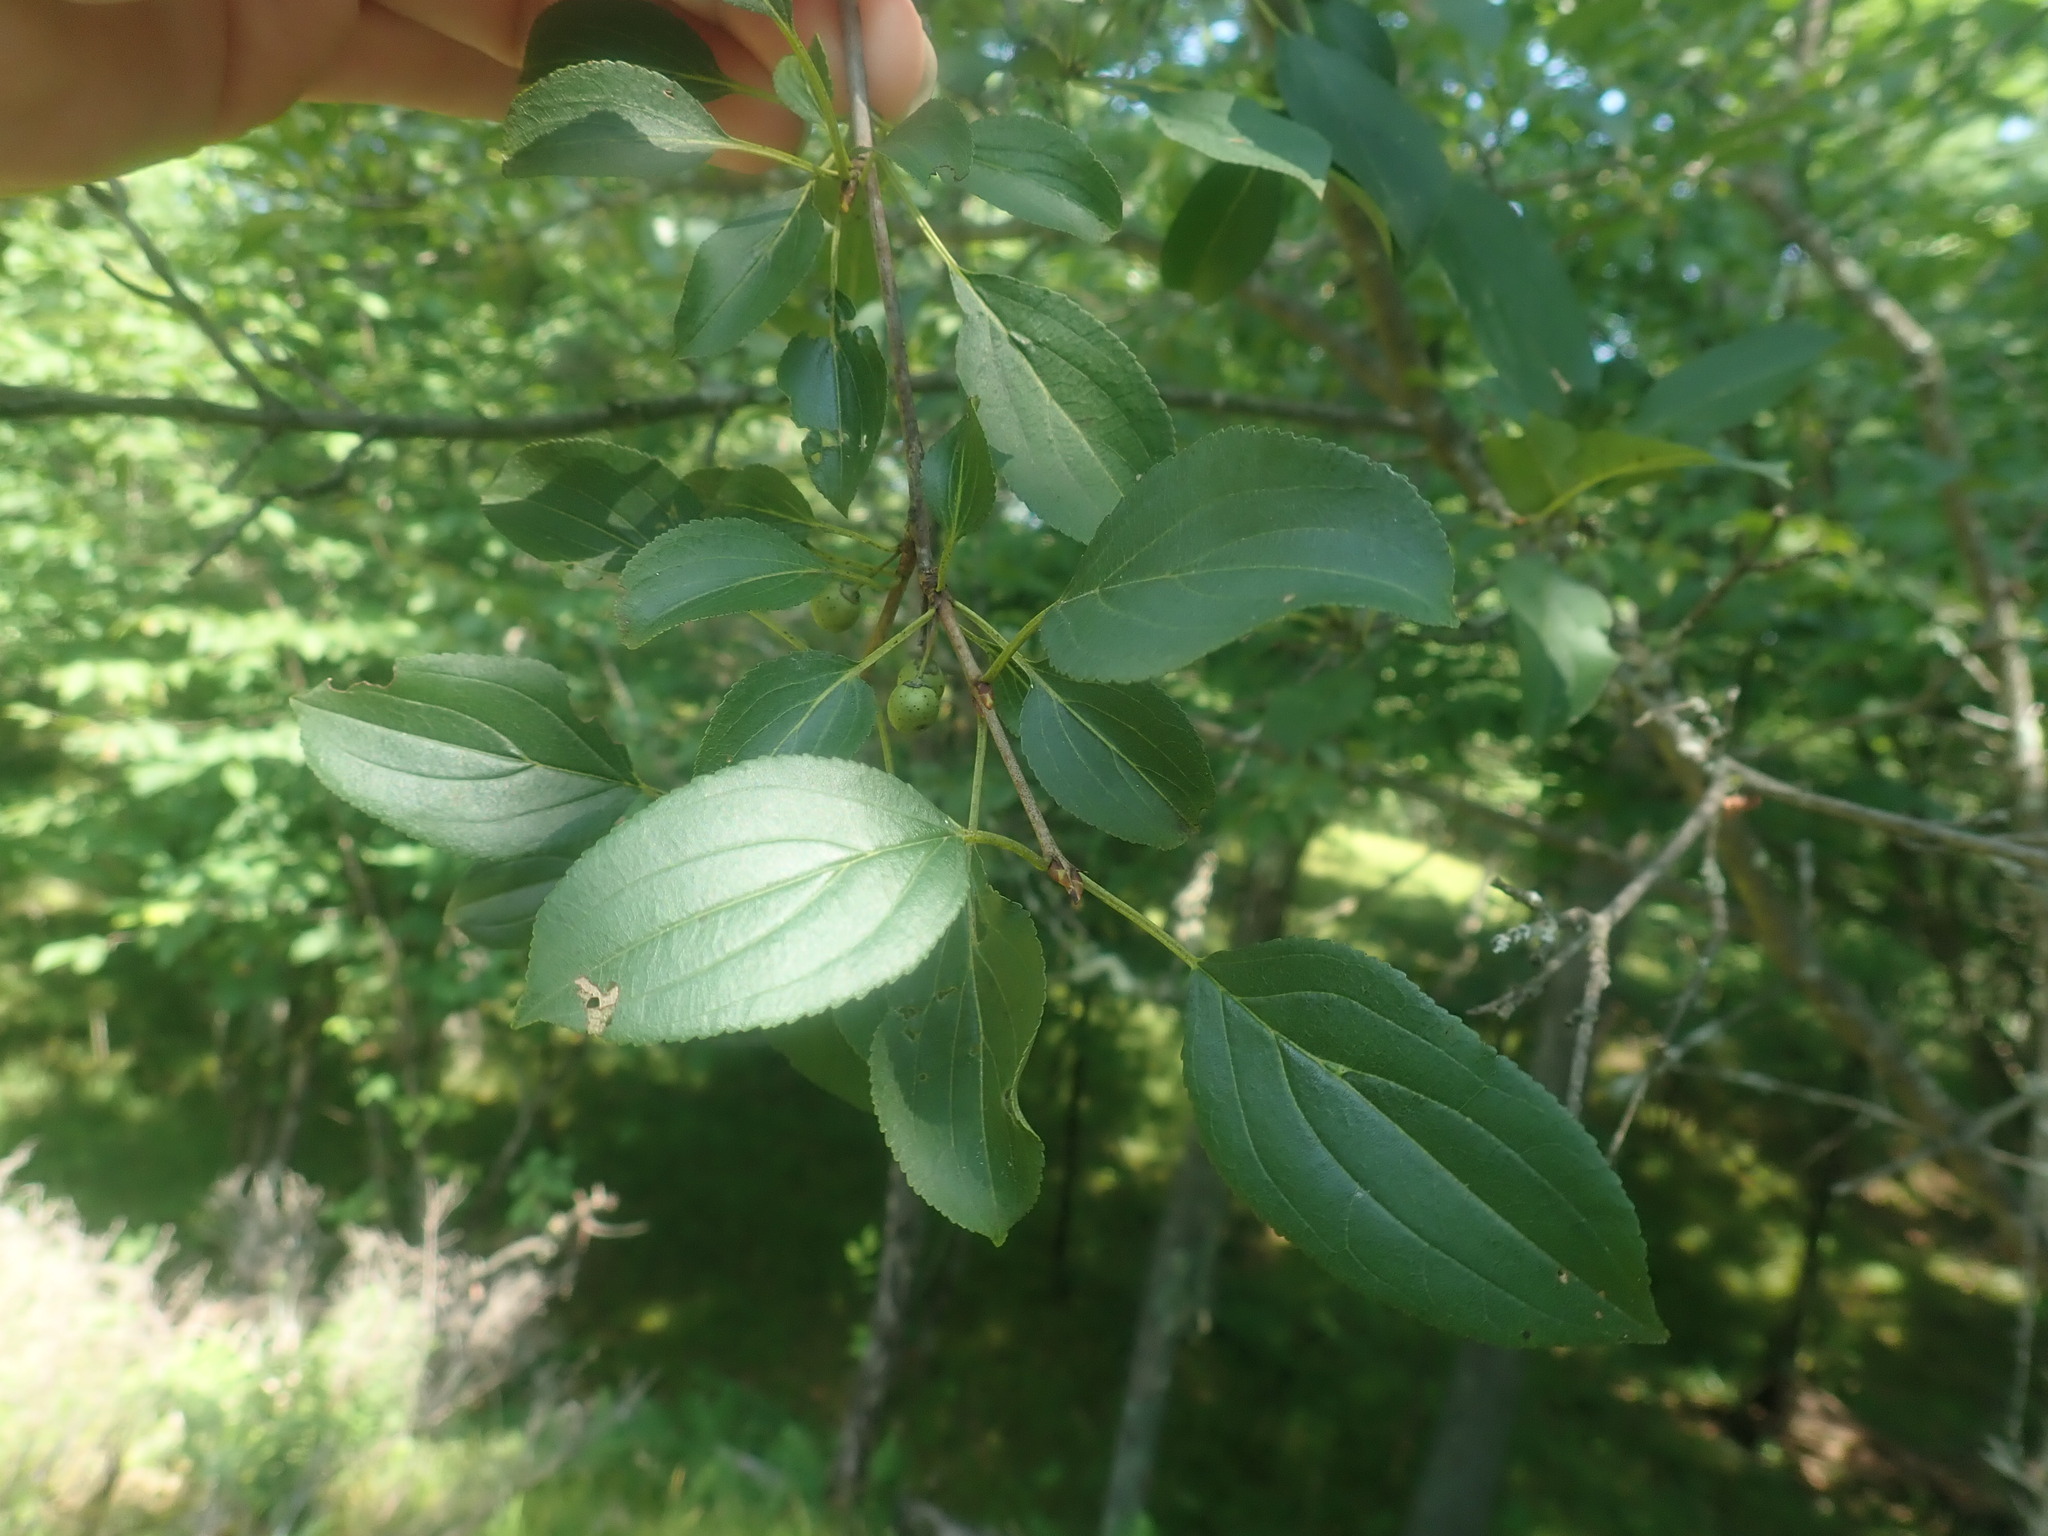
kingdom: Plantae
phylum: Tracheophyta
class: Magnoliopsida
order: Rosales
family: Rhamnaceae
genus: Rhamnus
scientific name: Rhamnus cathartica
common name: Common buckthorn
